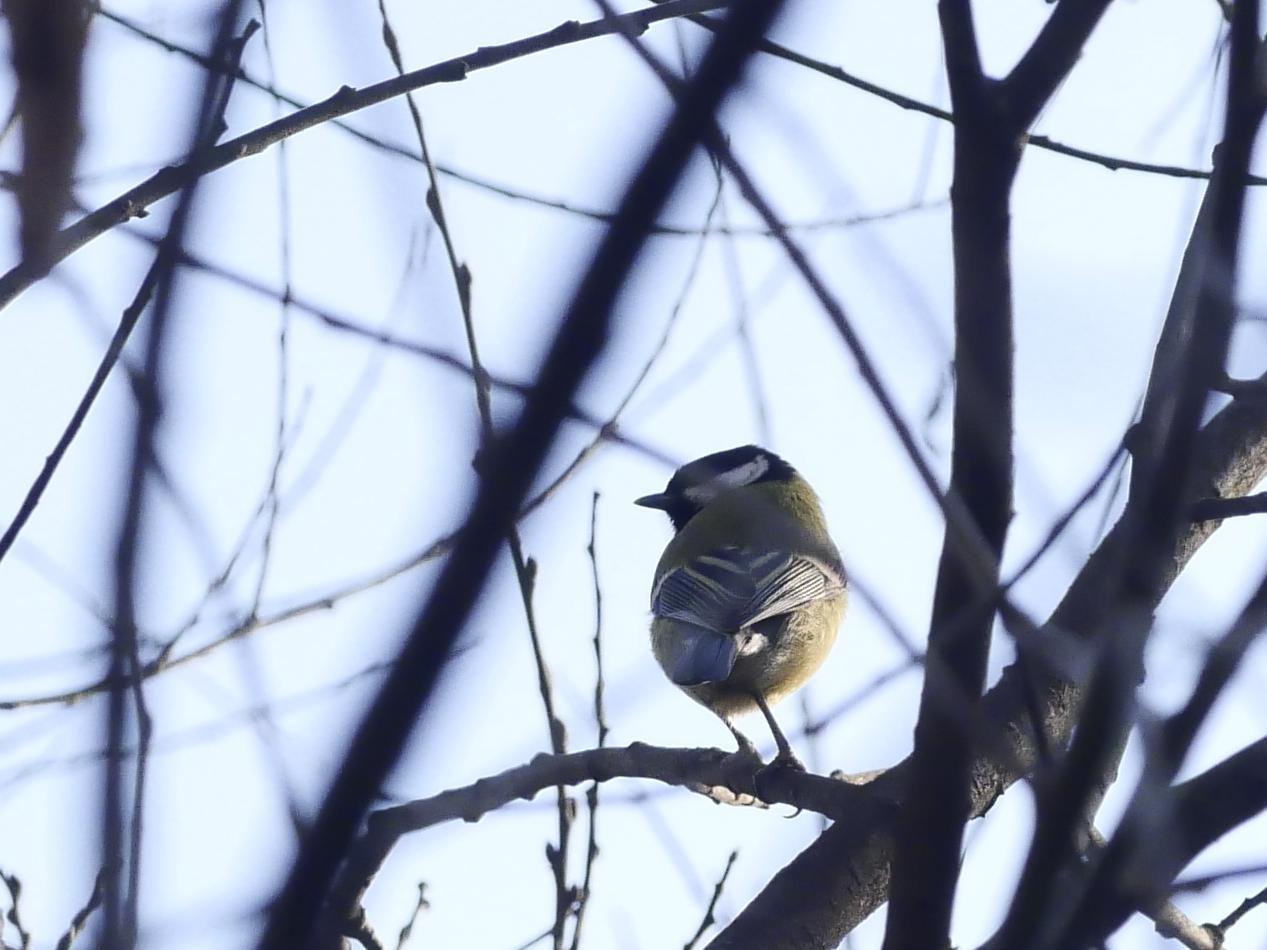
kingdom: Animalia
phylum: Chordata
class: Aves
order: Passeriformes
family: Paridae
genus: Parus
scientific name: Parus major
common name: Great tit
